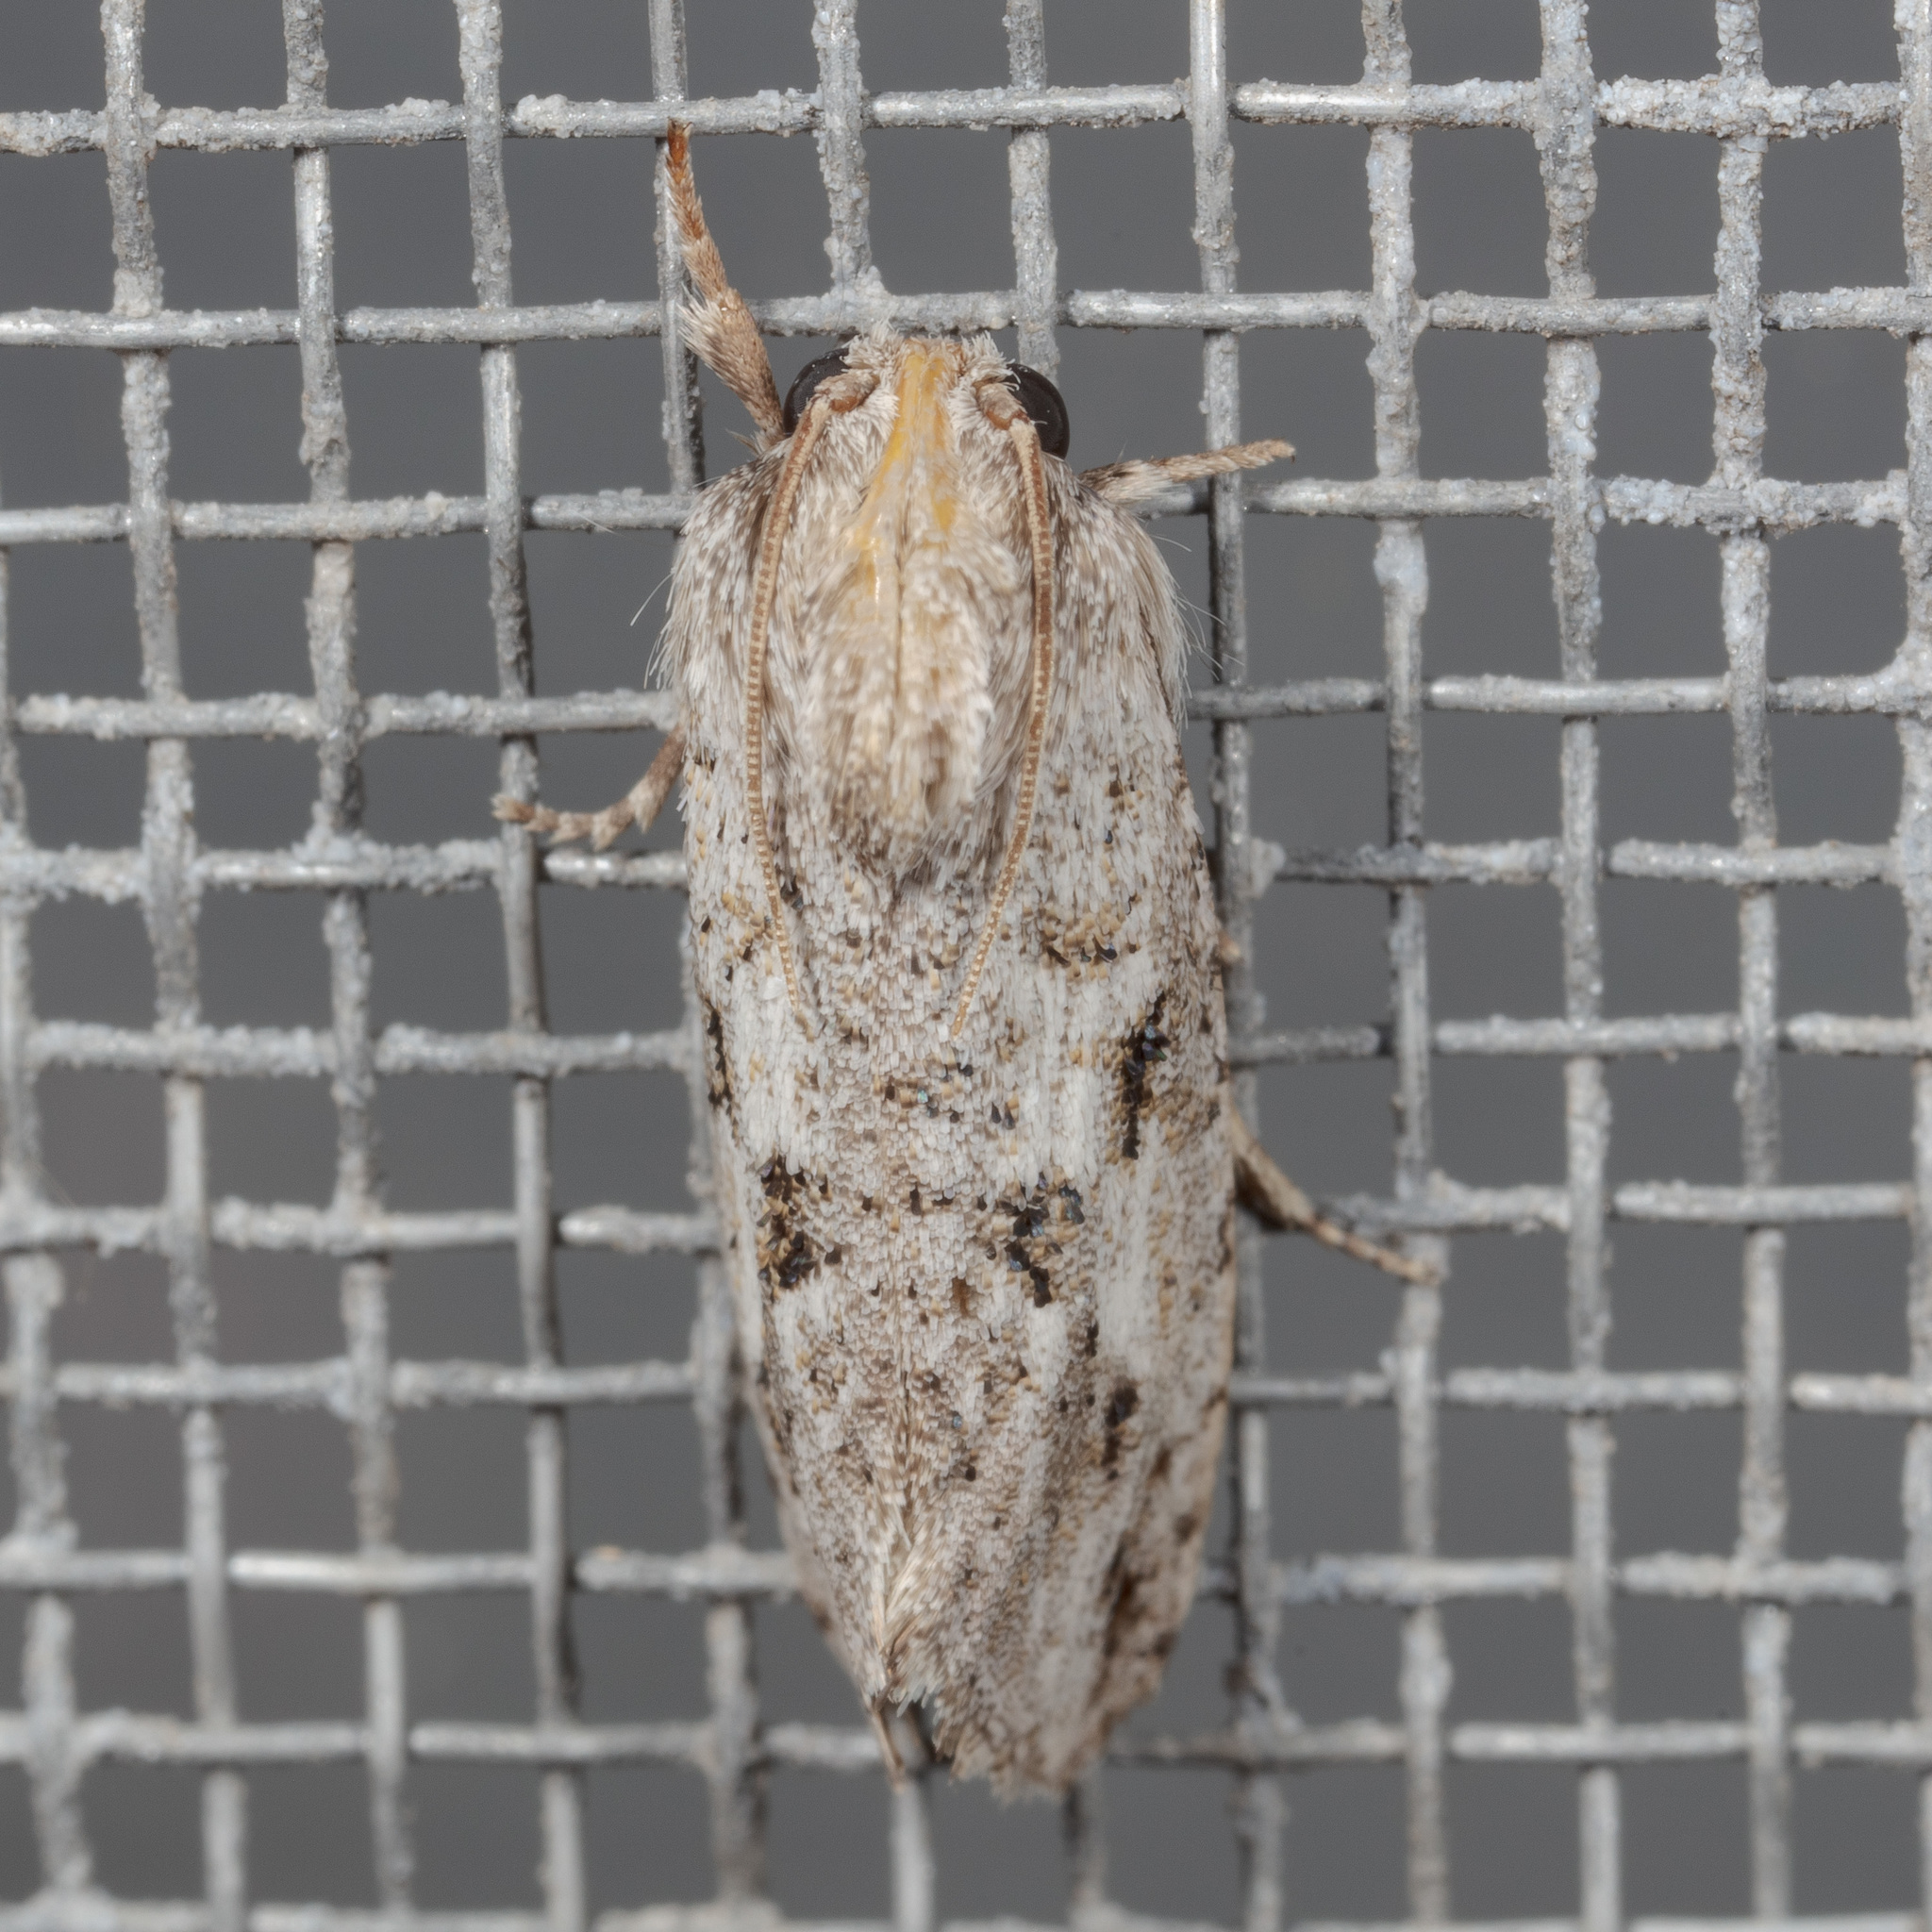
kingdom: Animalia
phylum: Arthropoda
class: Insecta
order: Lepidoptera
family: Tineidae
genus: Acrolophus
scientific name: Acrolophus griseus
